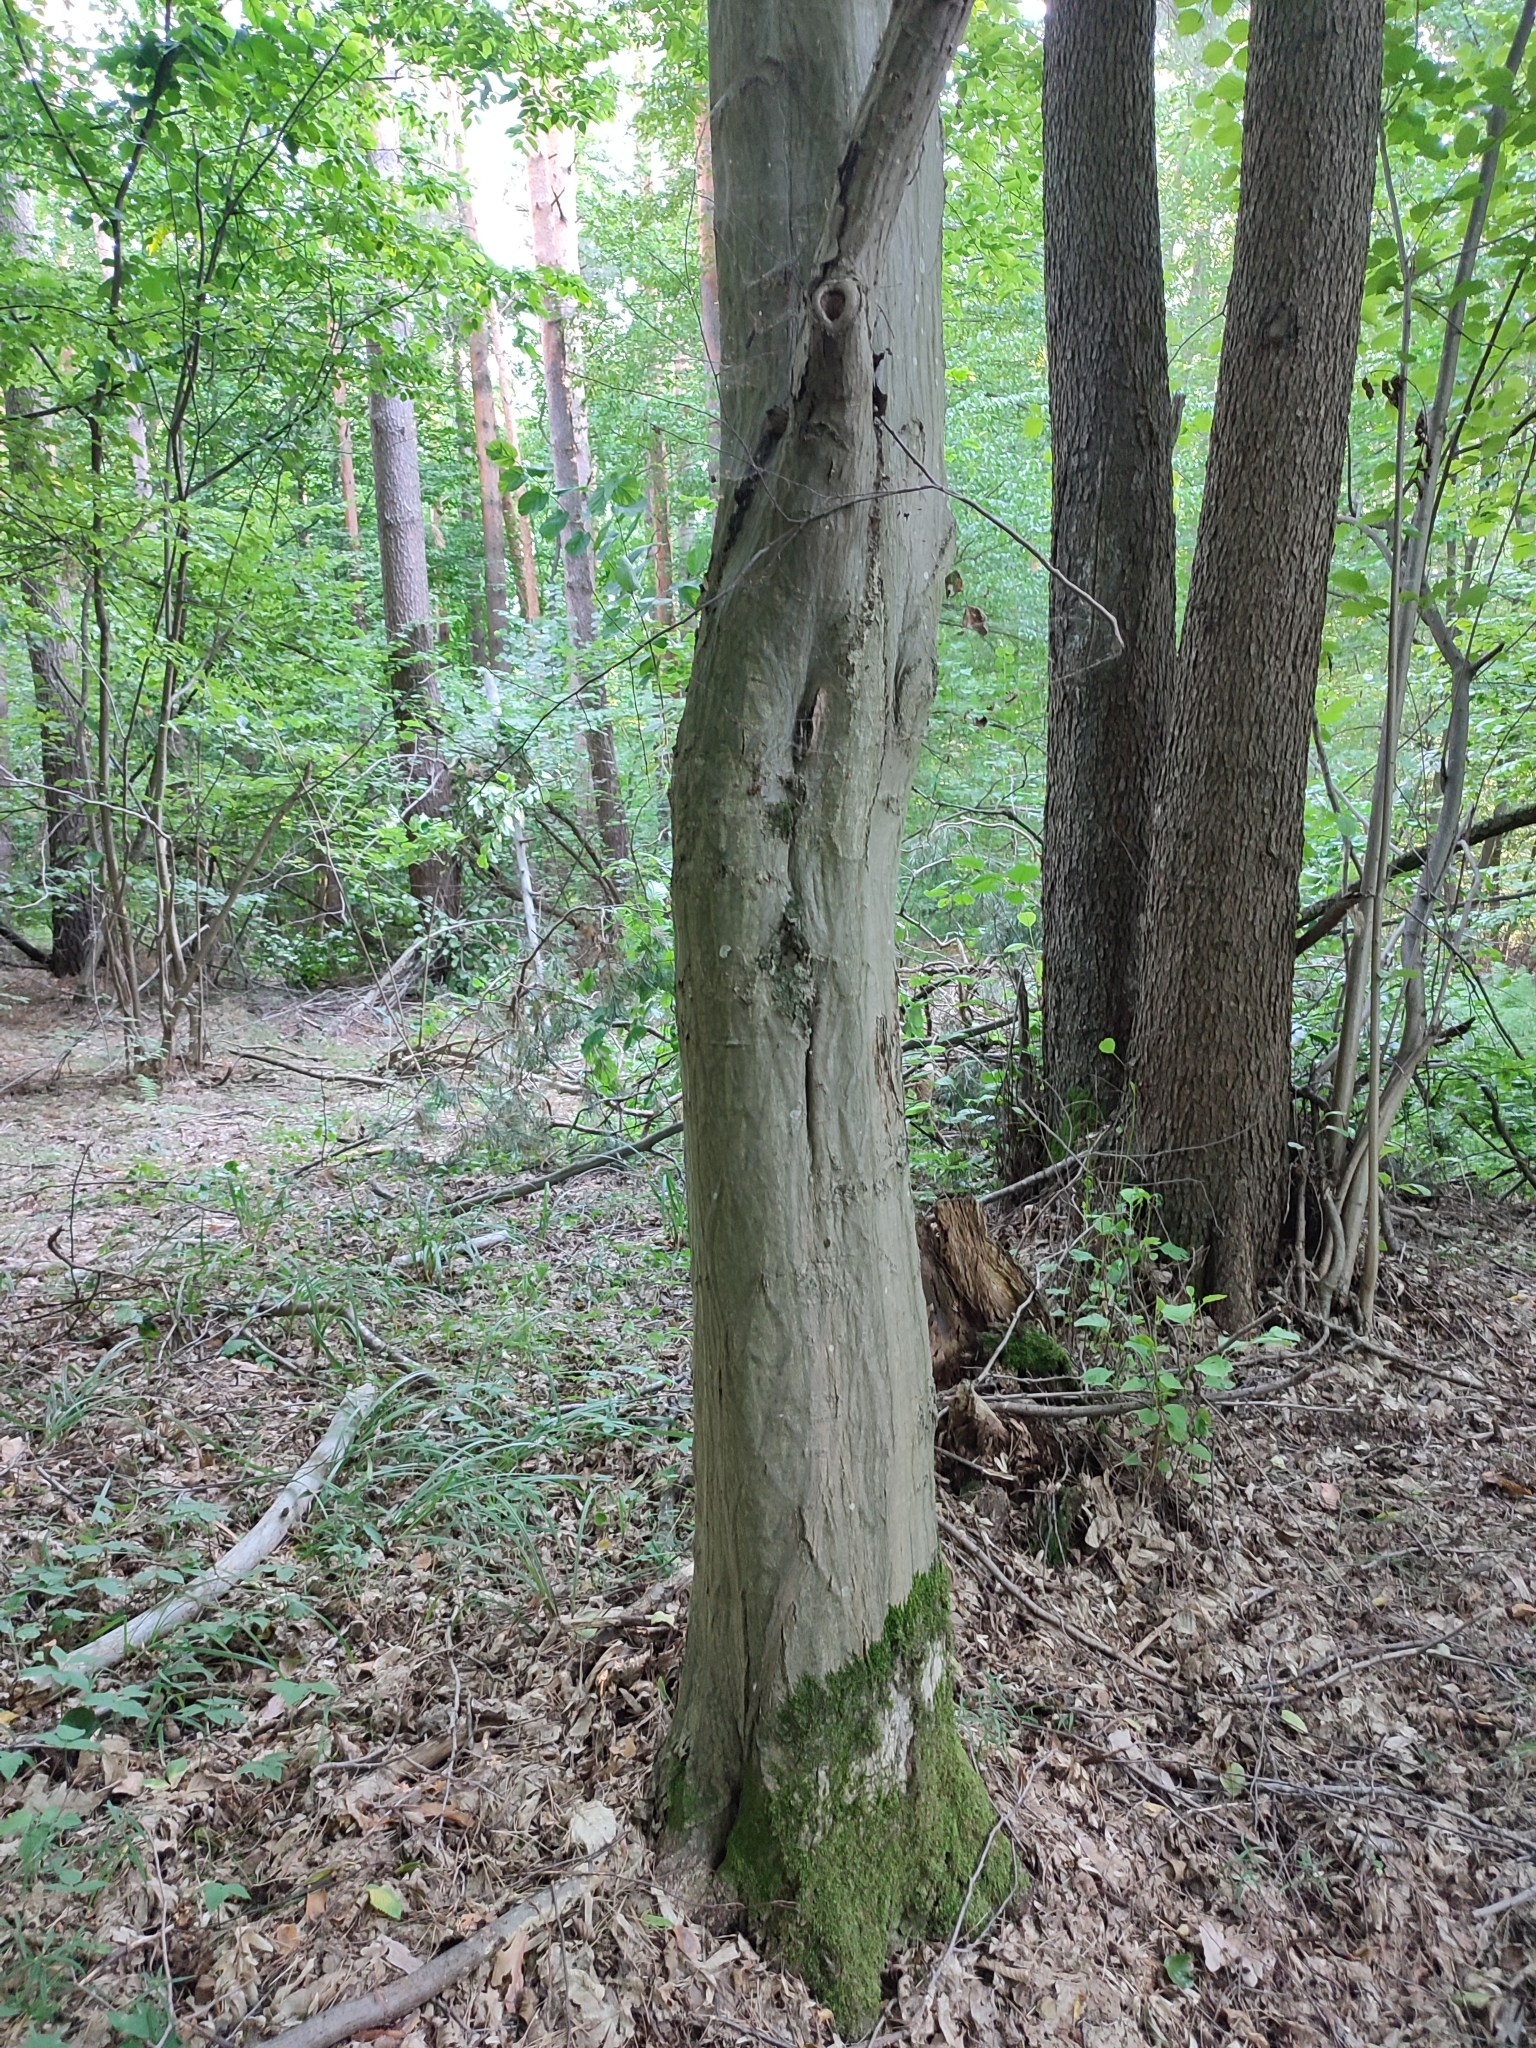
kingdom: Plantae
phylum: Tracheophyta
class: Magnoliopsida
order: Fagales
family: Betulaceae
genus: Carpinus
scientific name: Carpinus betulus
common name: Hornbeam
